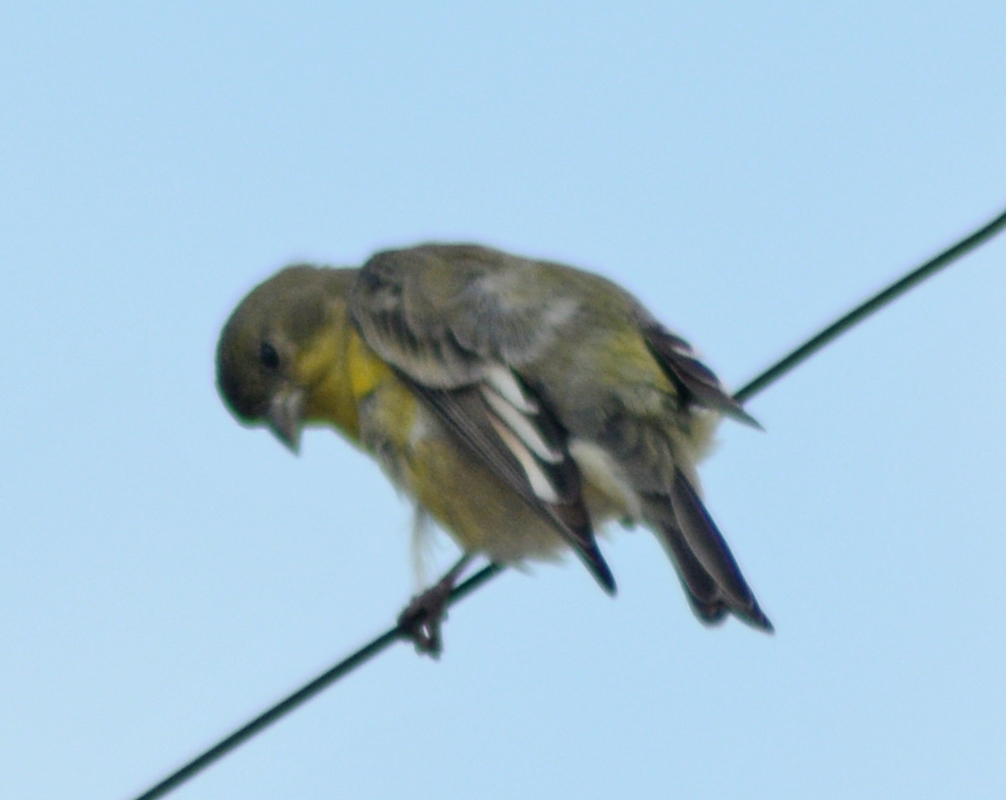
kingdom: Animalia
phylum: Chordata
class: Aves
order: Passeriformes
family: Fringillidae
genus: Spinus
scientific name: Spinus psaltria
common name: Lesser goldfinch
